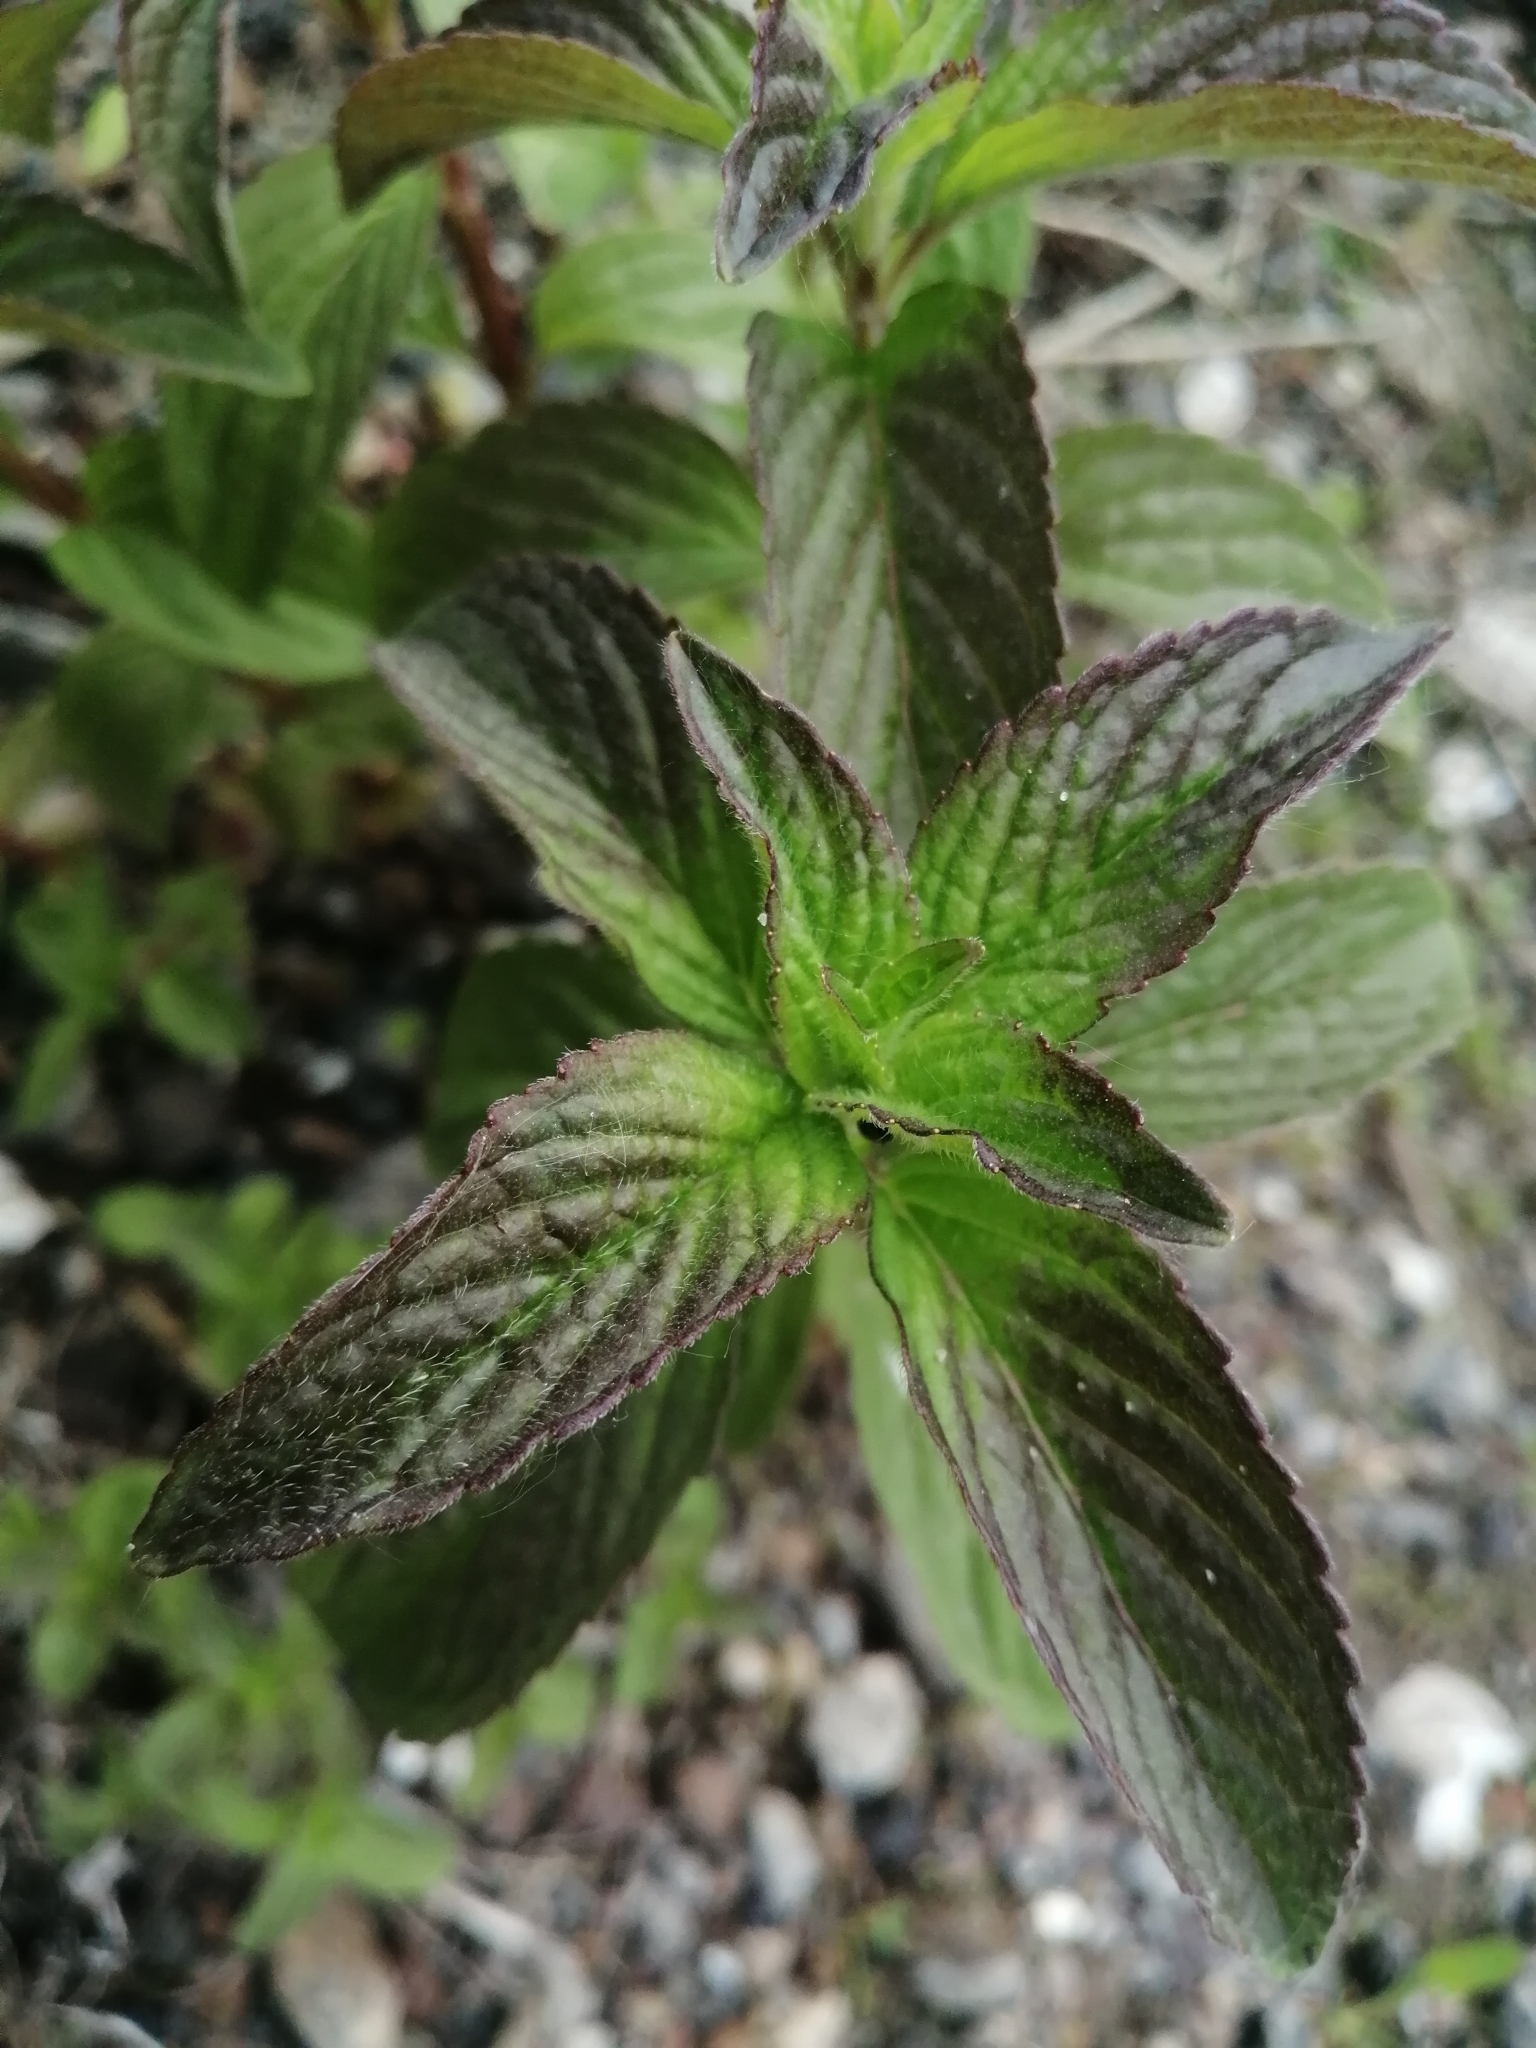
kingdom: Plantae
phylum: Tracheophyta
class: Magnoliopsida
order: Lamiales
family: Lamiaceae
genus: Mentha
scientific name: Mentha arvensis
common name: Corn mint
